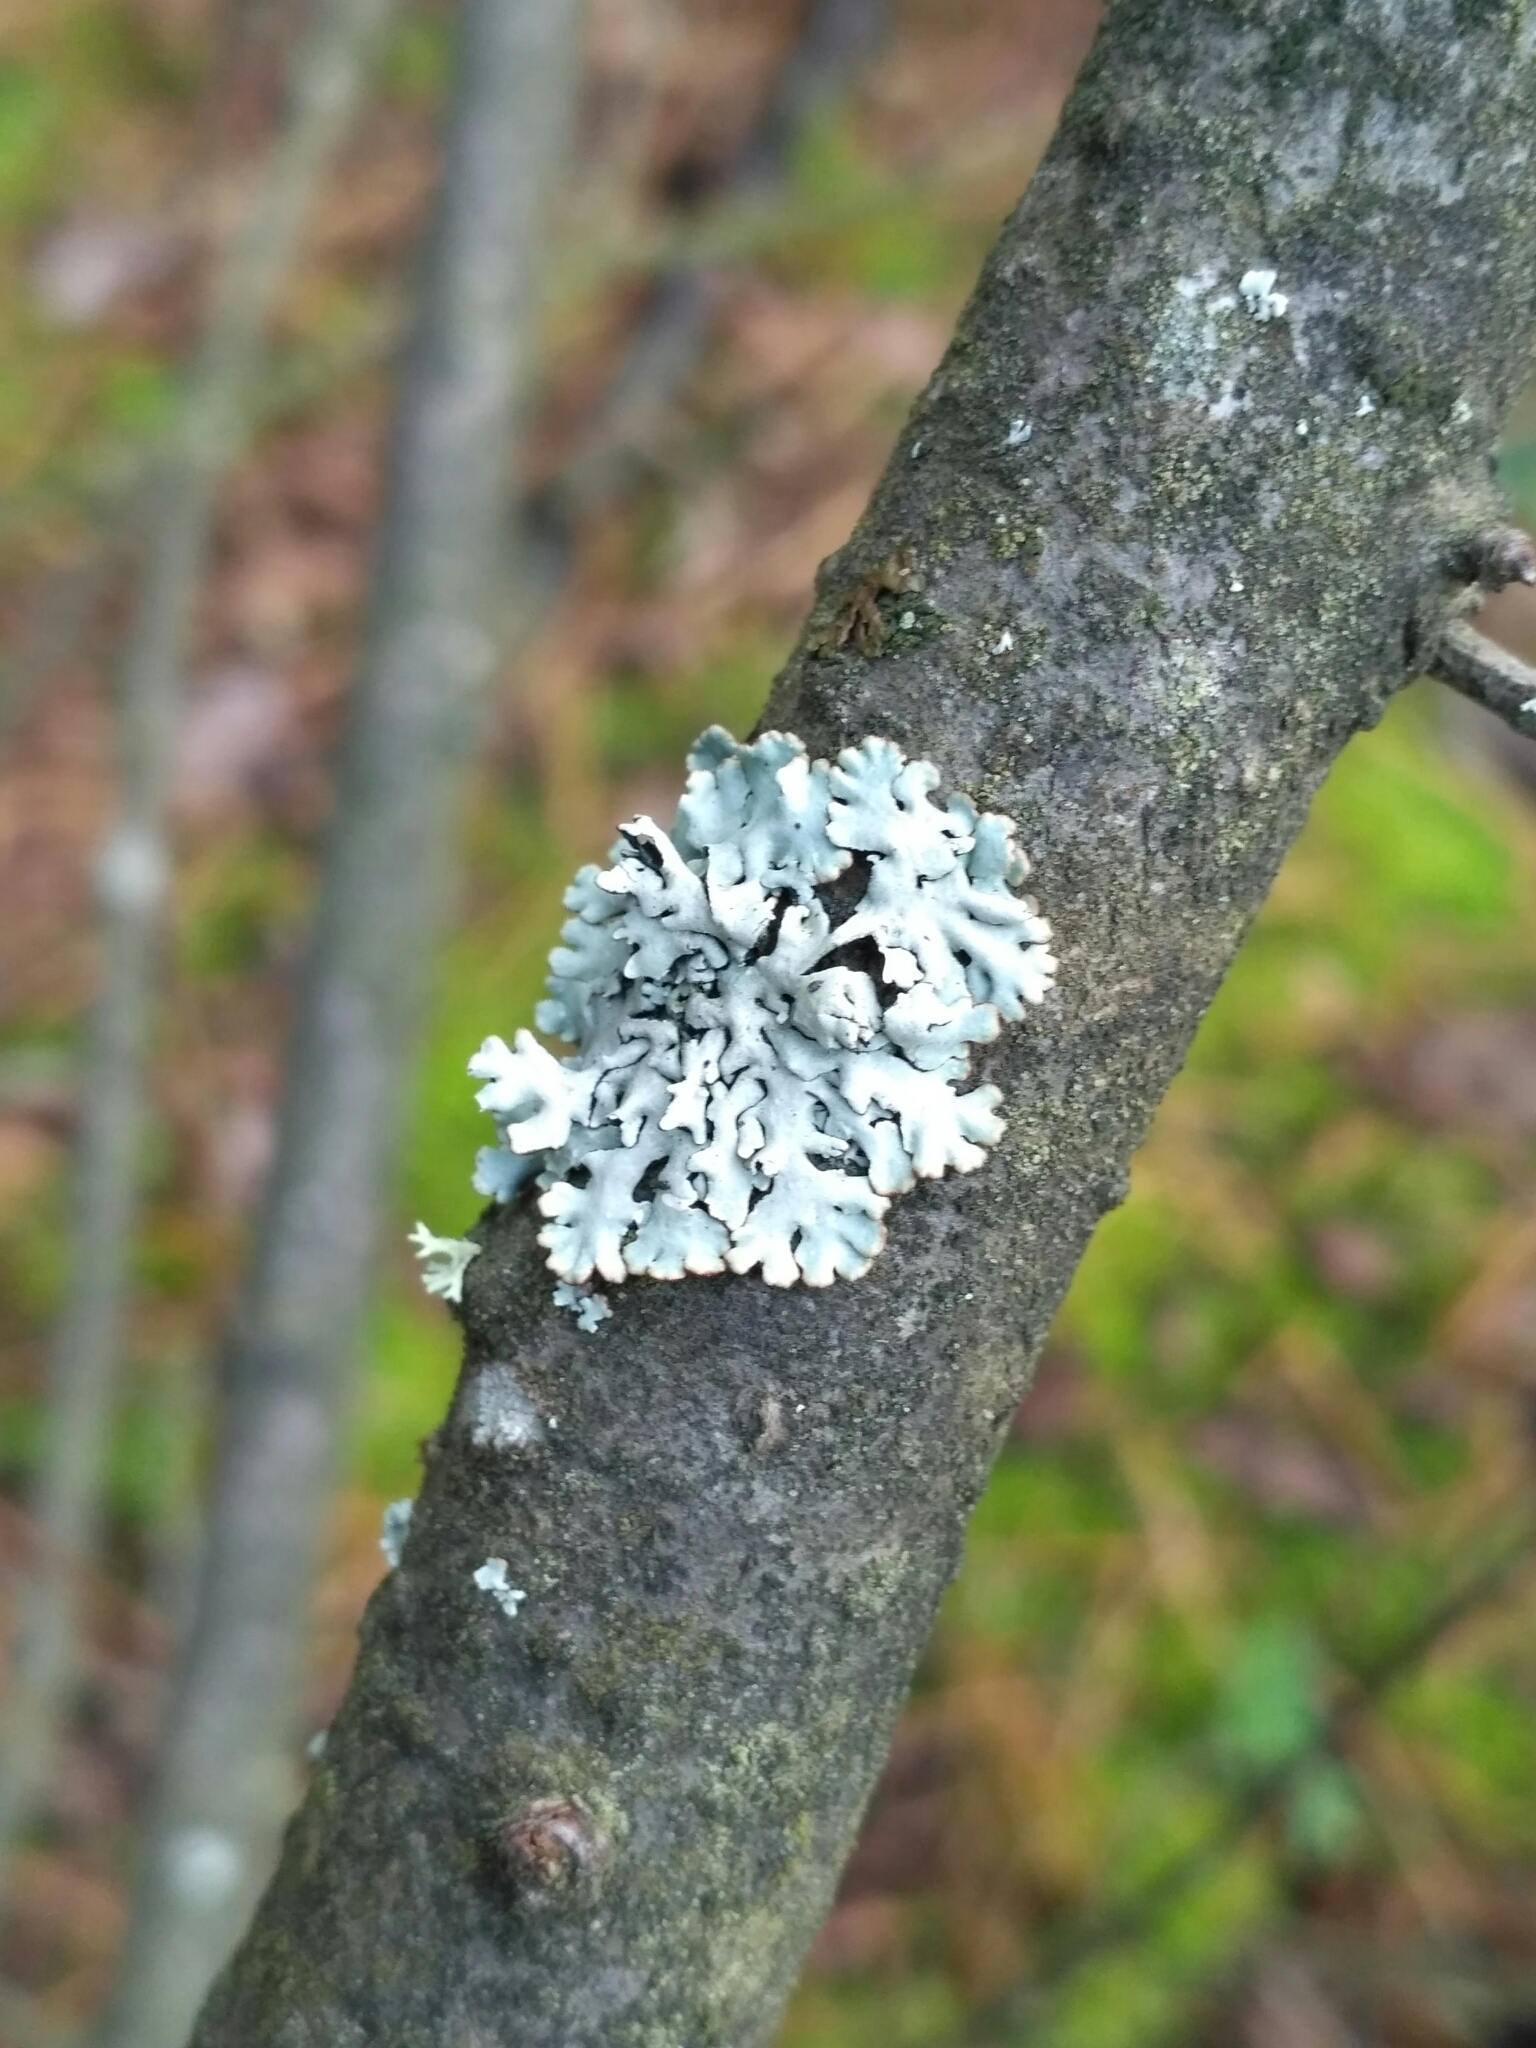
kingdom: Fungi
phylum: Ascomycota
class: Lecanoromycetes
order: Lecanorales
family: Parmeliaceae
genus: Hypogymnia
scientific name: Hypogymnia physodes
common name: Dark crottle
